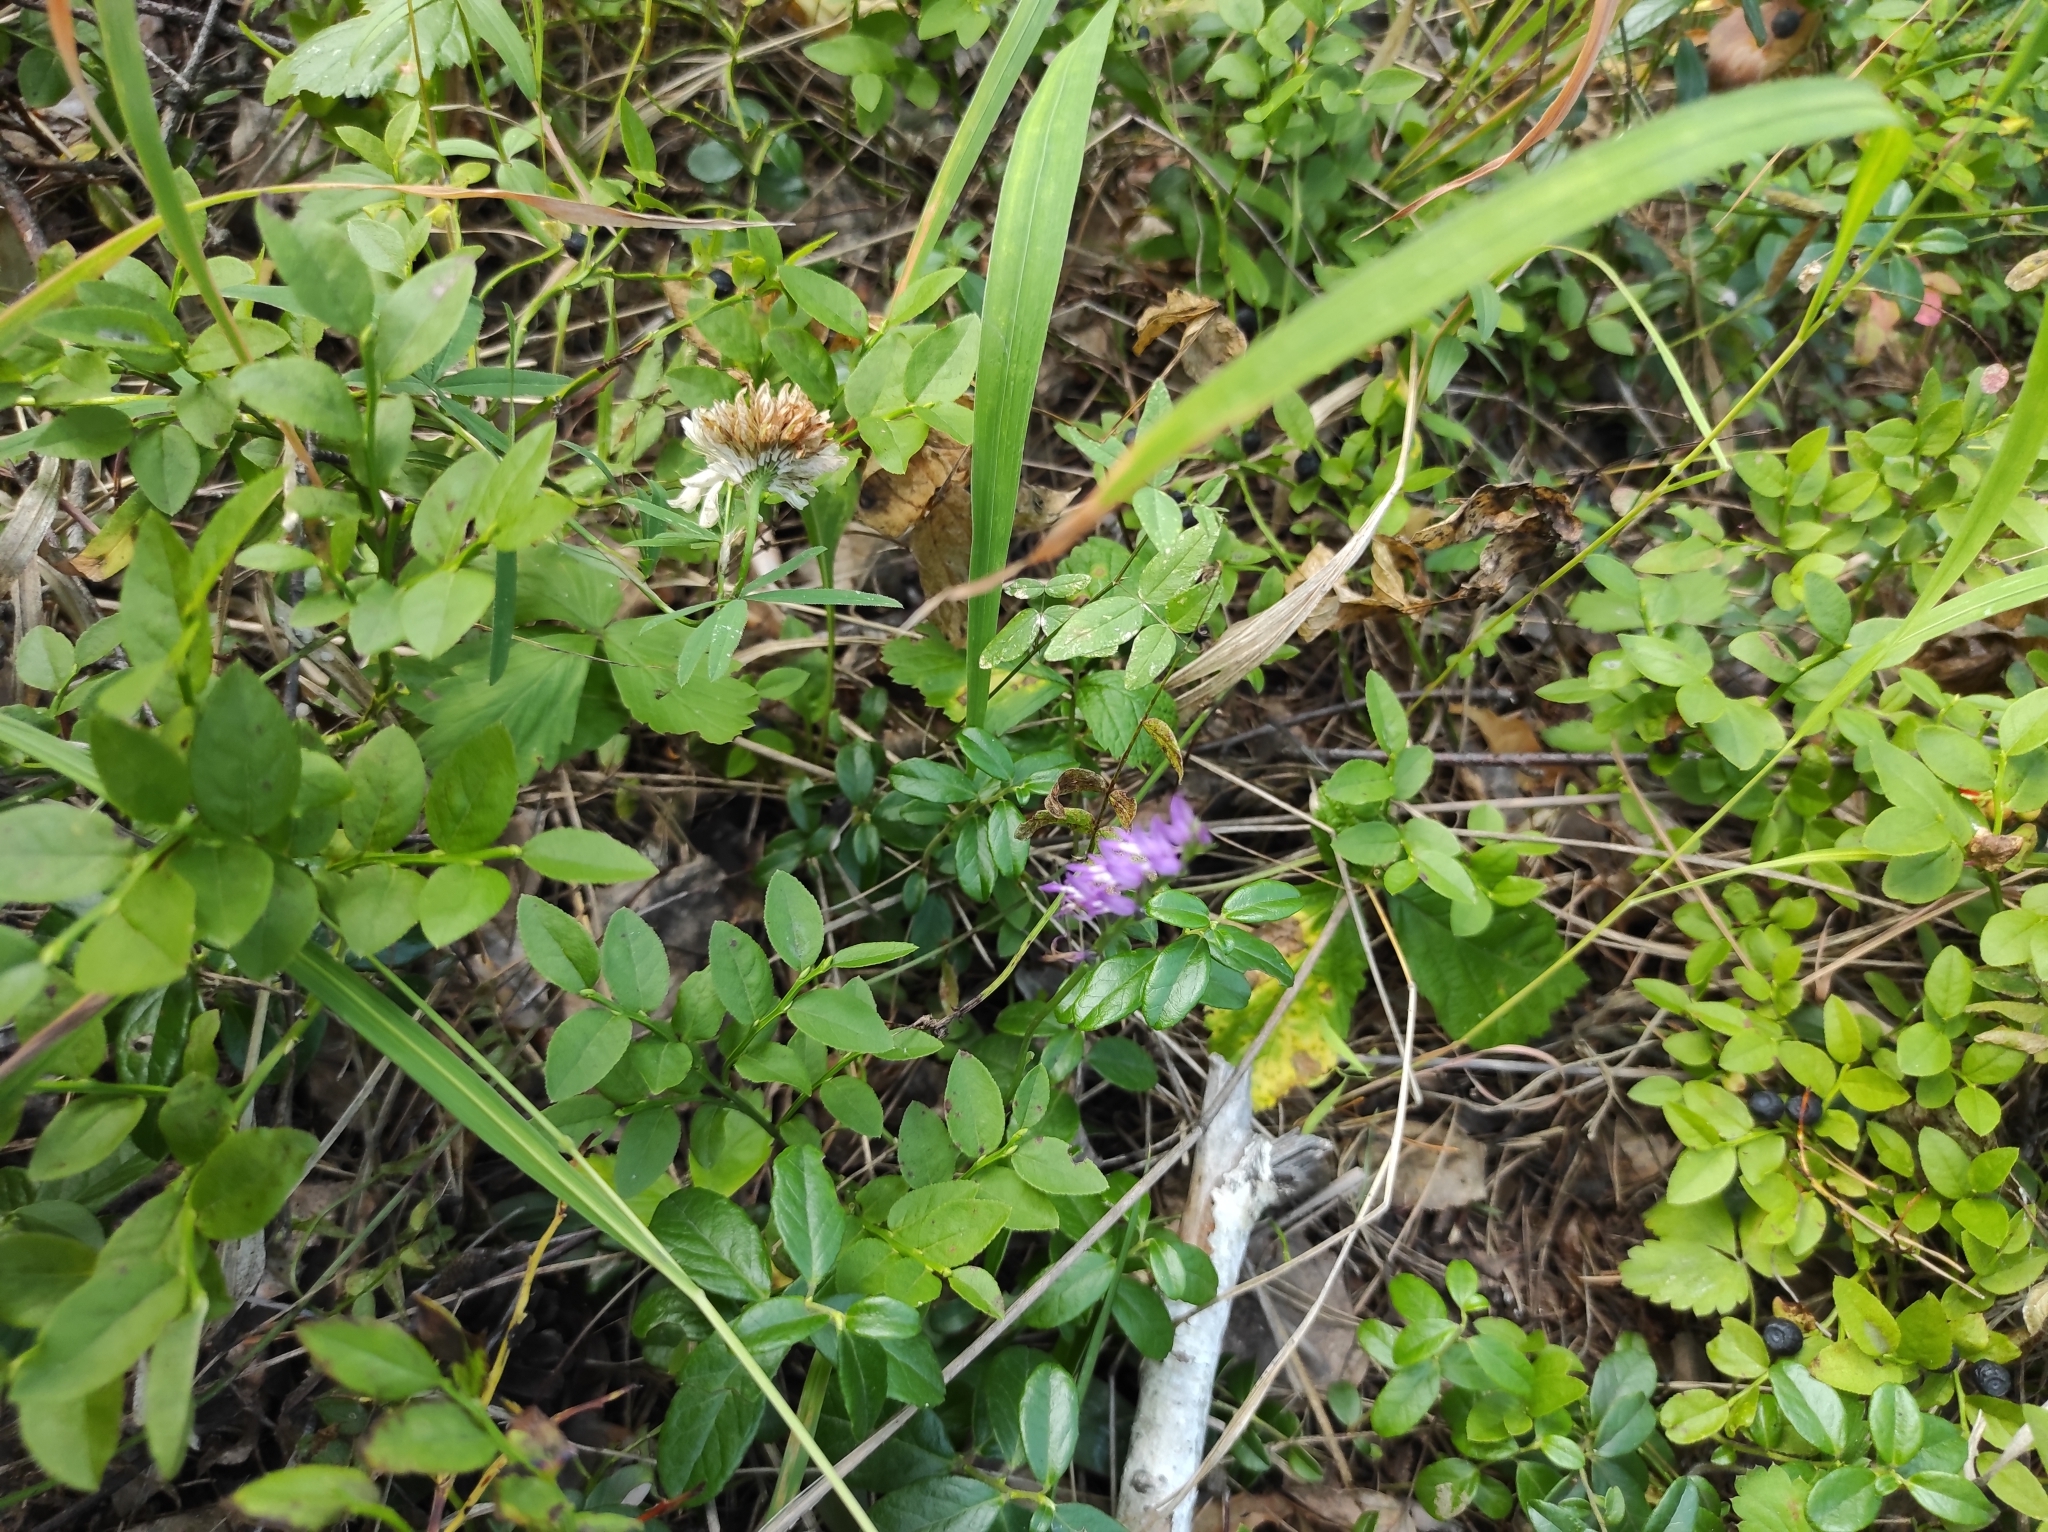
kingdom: Plantae
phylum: Tracheophyta
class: Liliopsida
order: Asparagales
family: Orchidaceae
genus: Hemipilia
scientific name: Hemipilia cucullata
